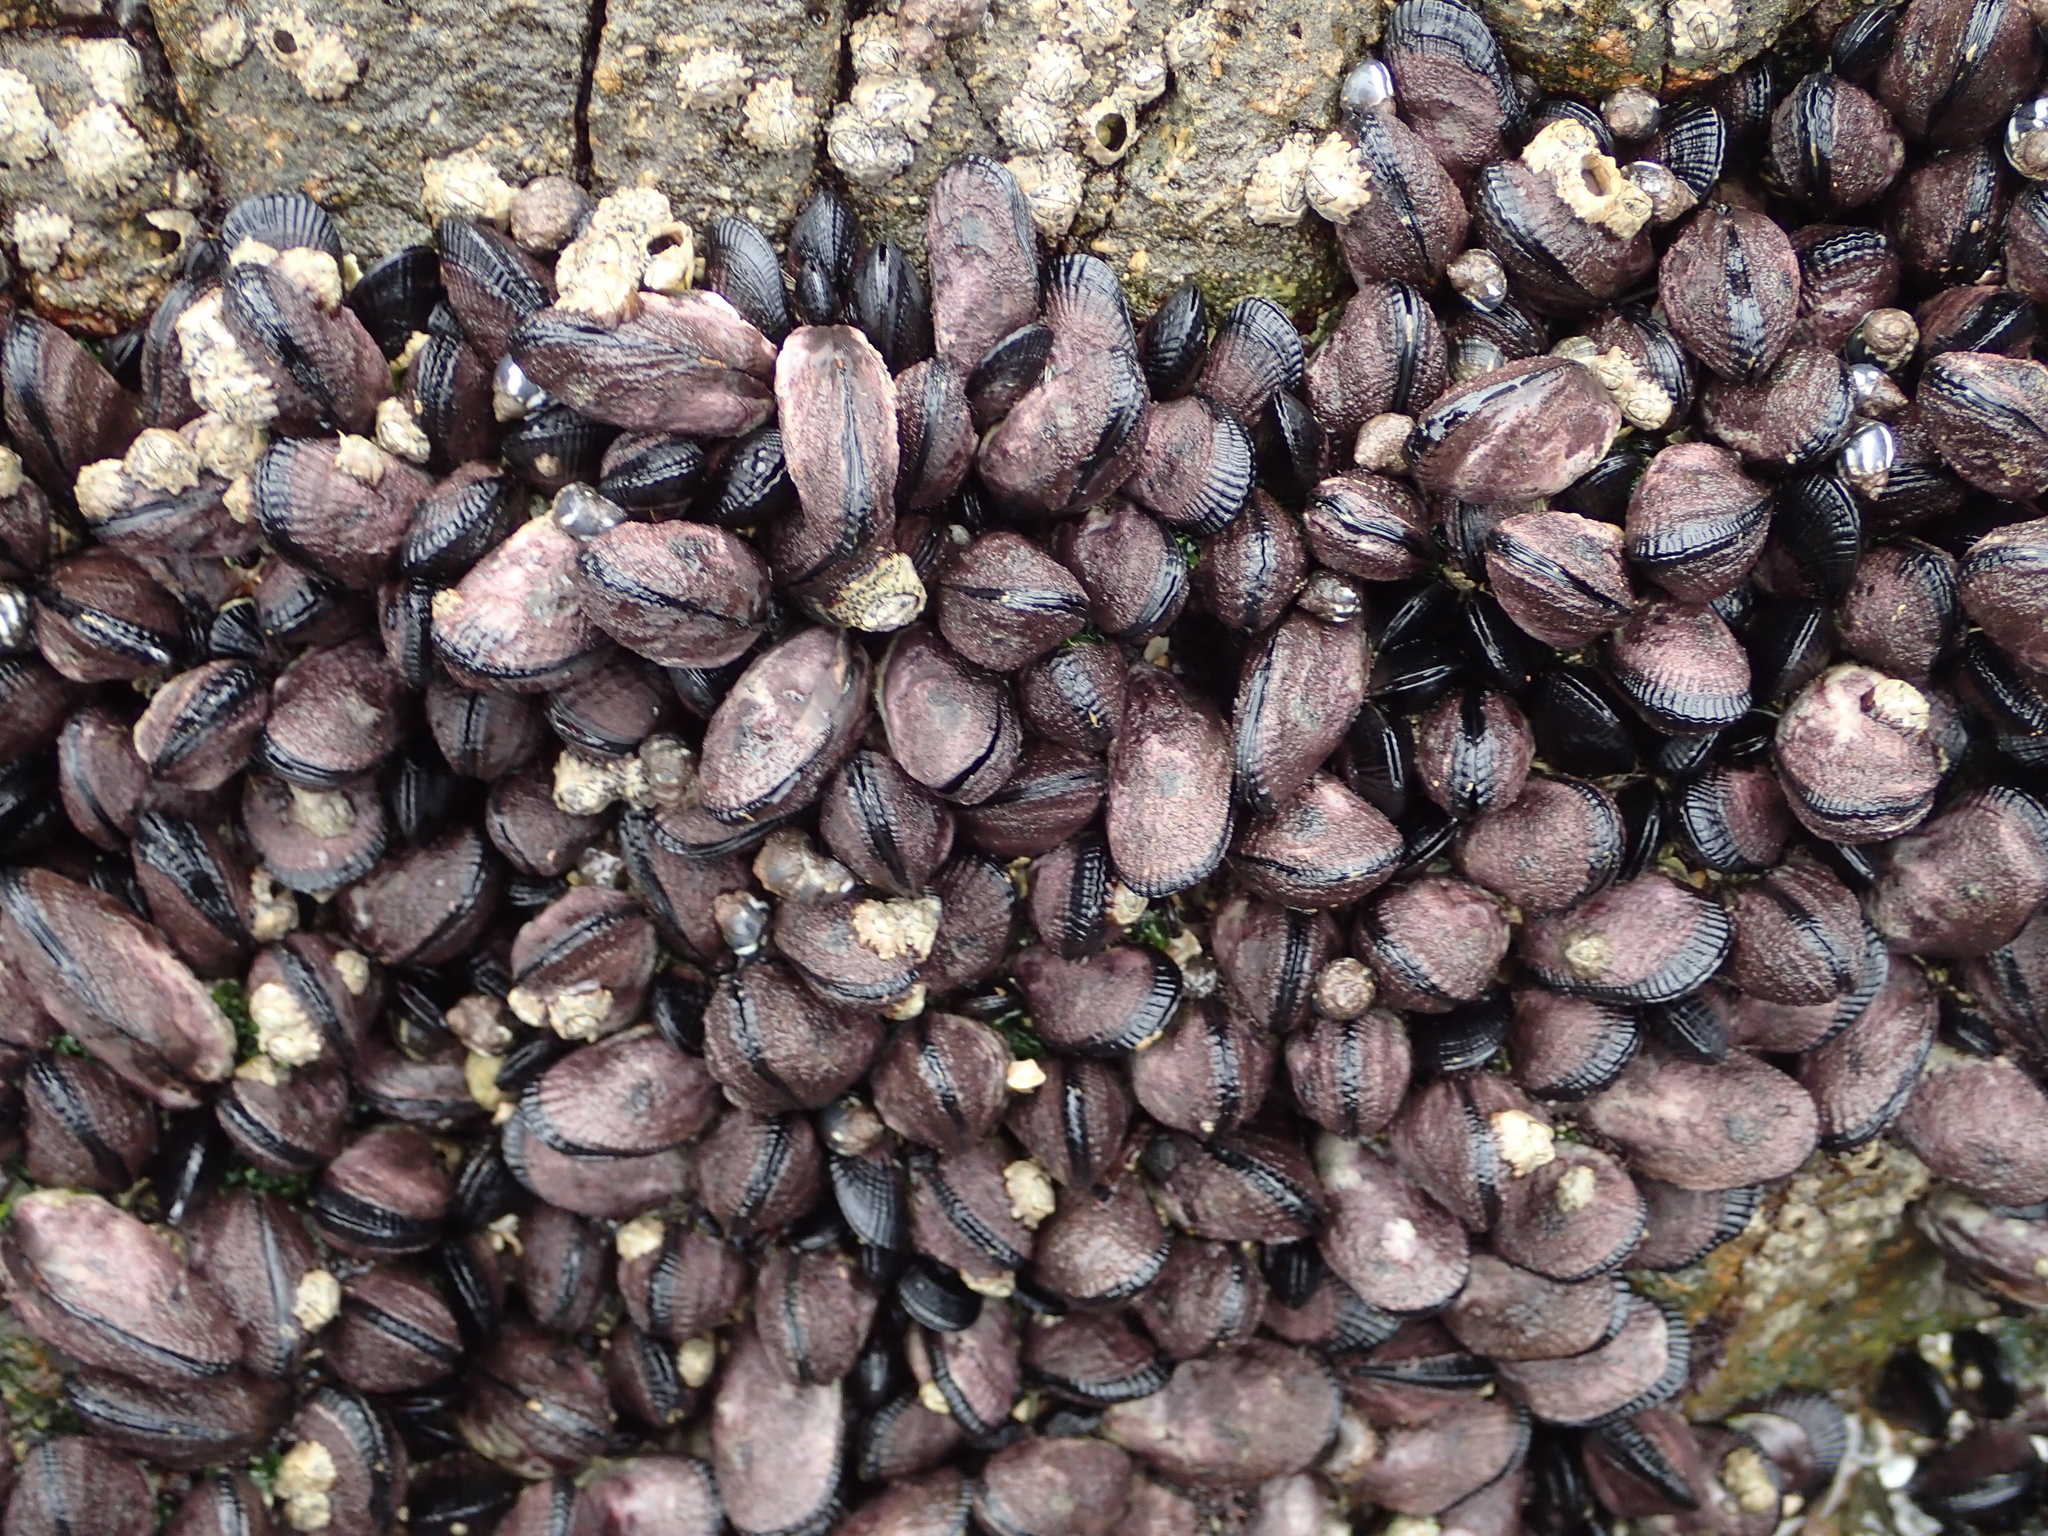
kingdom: Animalia
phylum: Mollusca
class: Bivalvia
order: Mytilida
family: Mytilidae
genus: Perumytilus
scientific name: Perumytilus purpuratus
